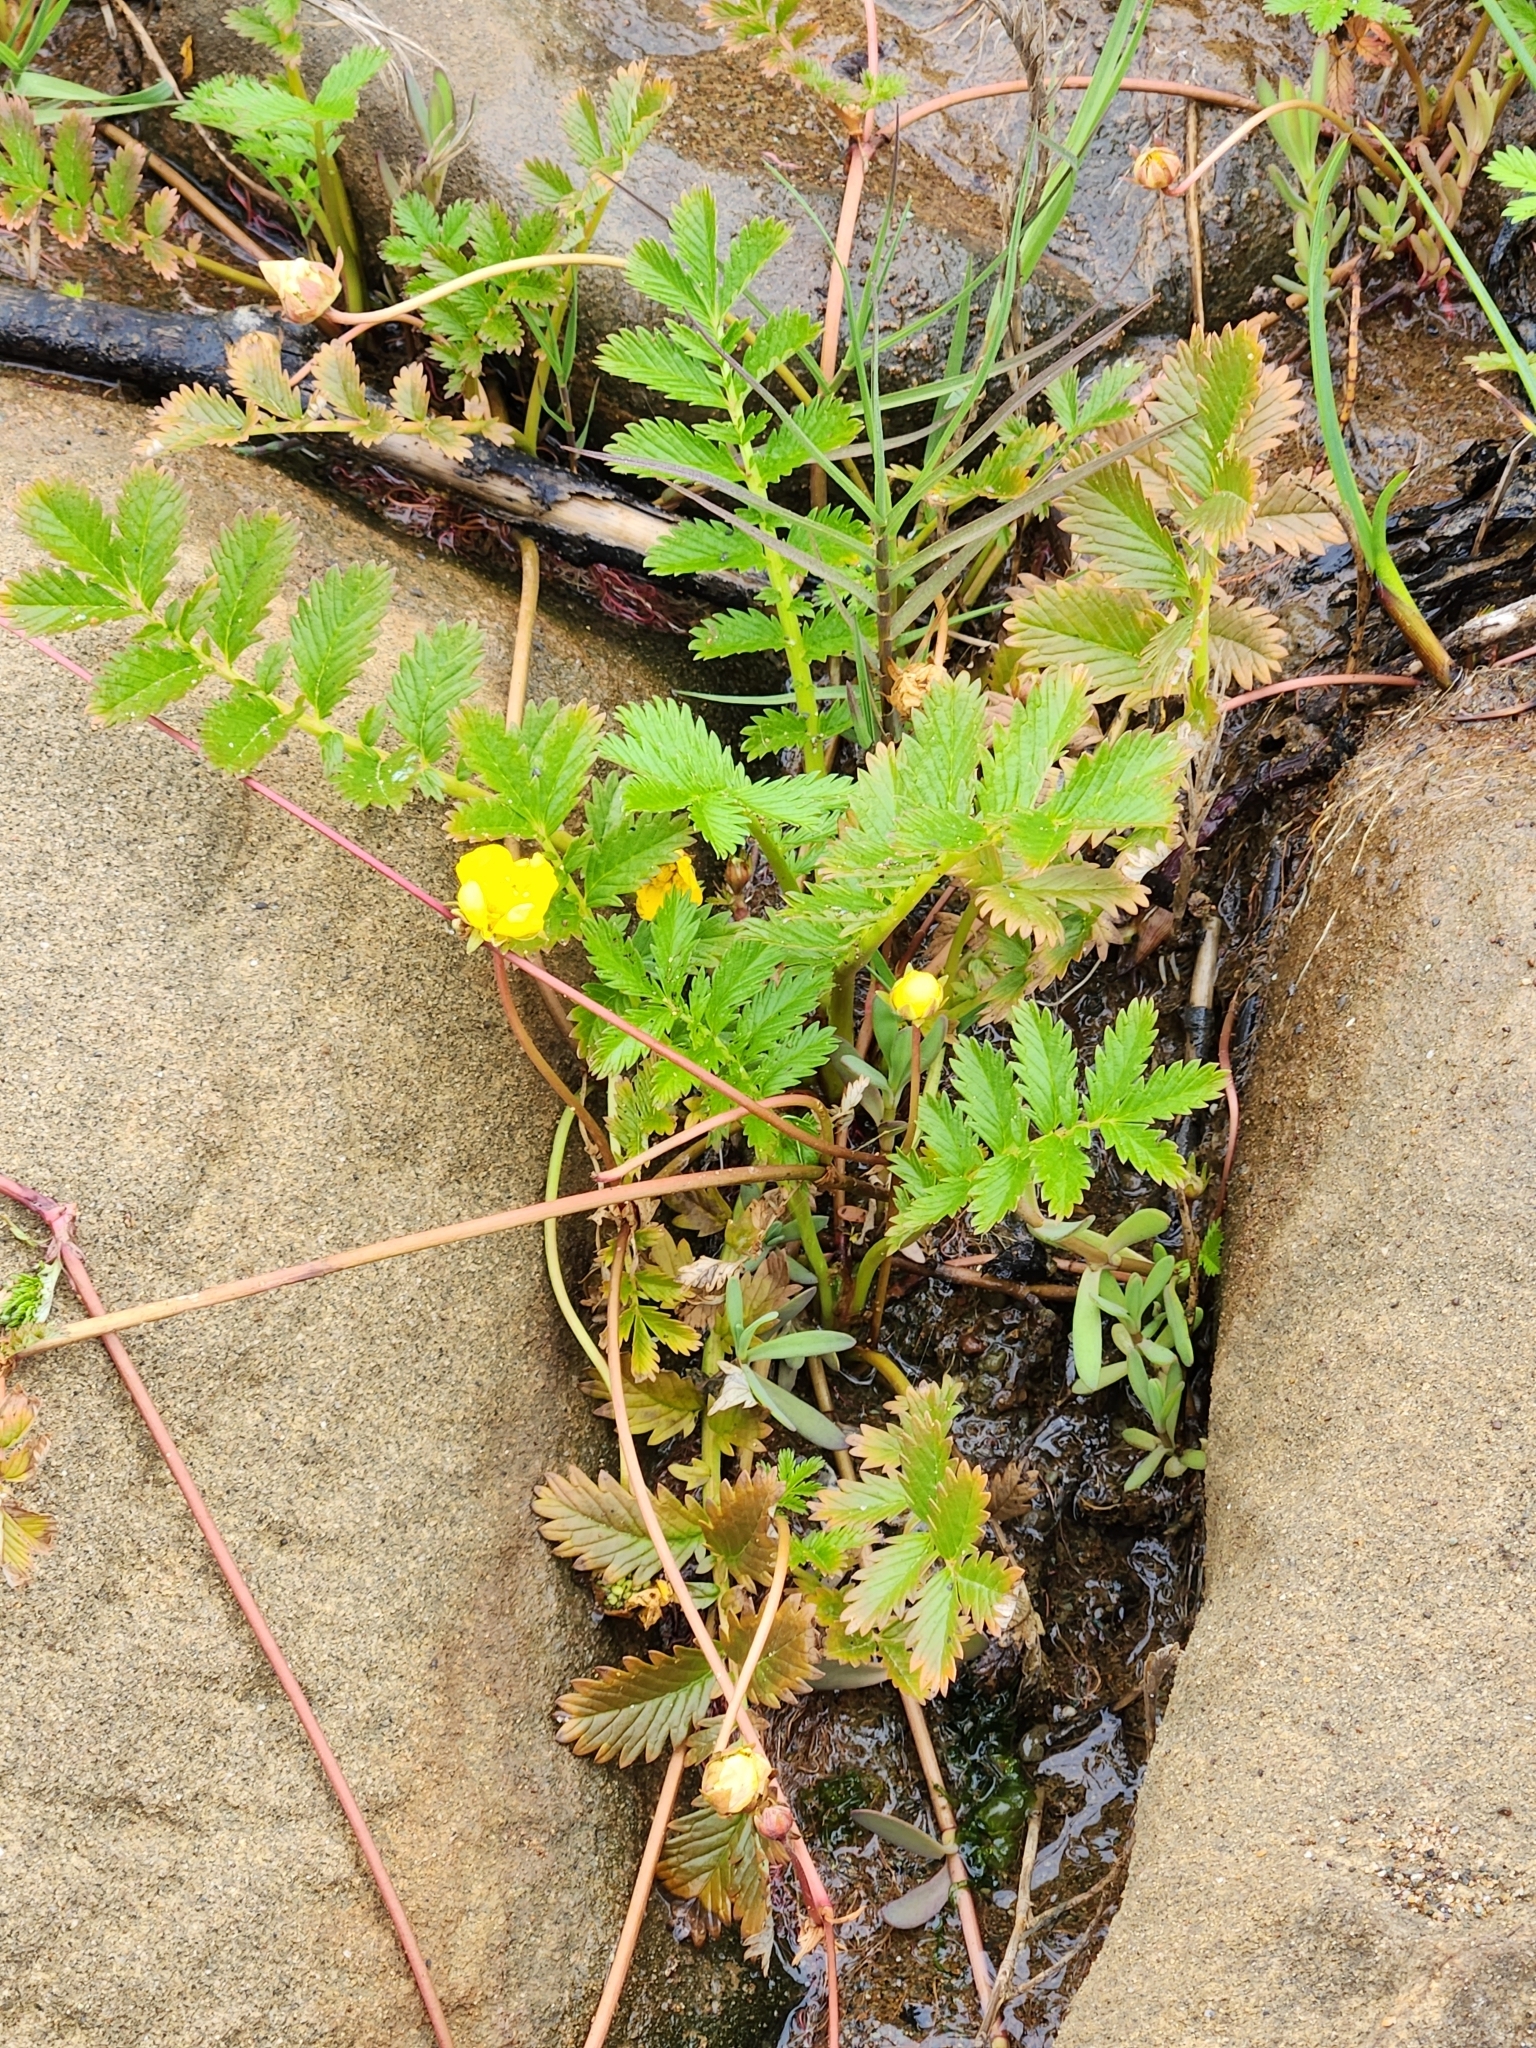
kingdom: Plantae
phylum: Tracheophyta
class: Magnoliopsida
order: Rosales
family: Rosaceae
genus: Argentina
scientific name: Argentina anserina
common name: Common silverweed
